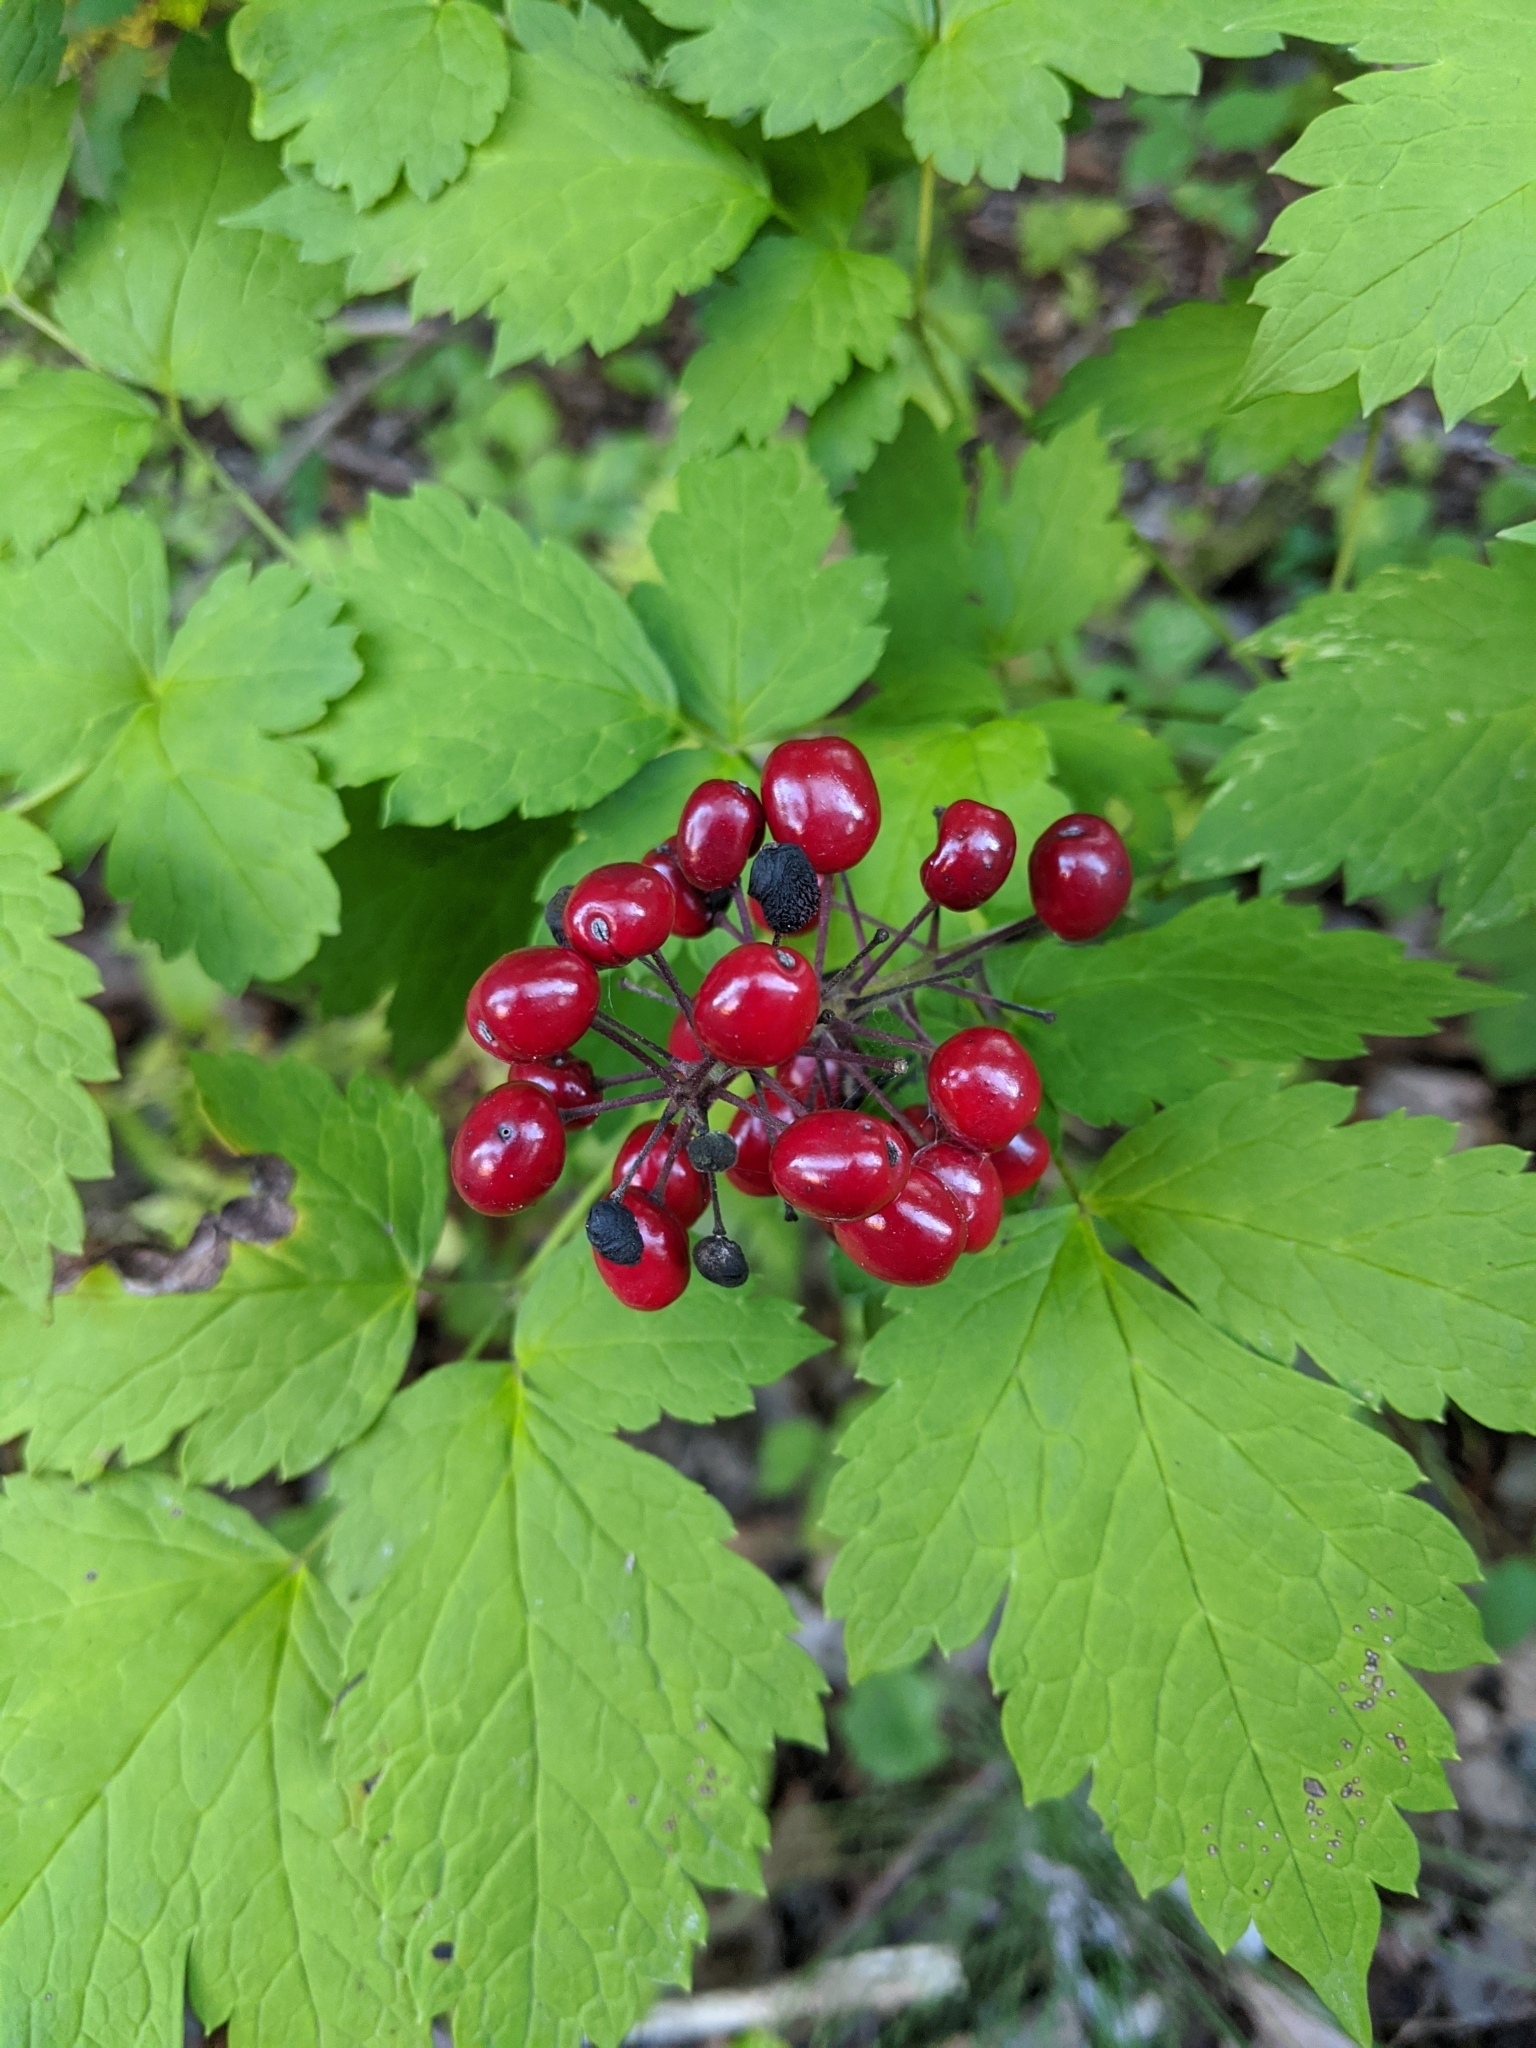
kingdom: Plantae
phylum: Tracheophyta
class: Magnoliopsida
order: Ranunculales
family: Ranunculaceae
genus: Actaea
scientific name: Actaea rubra
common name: Red baneberry
